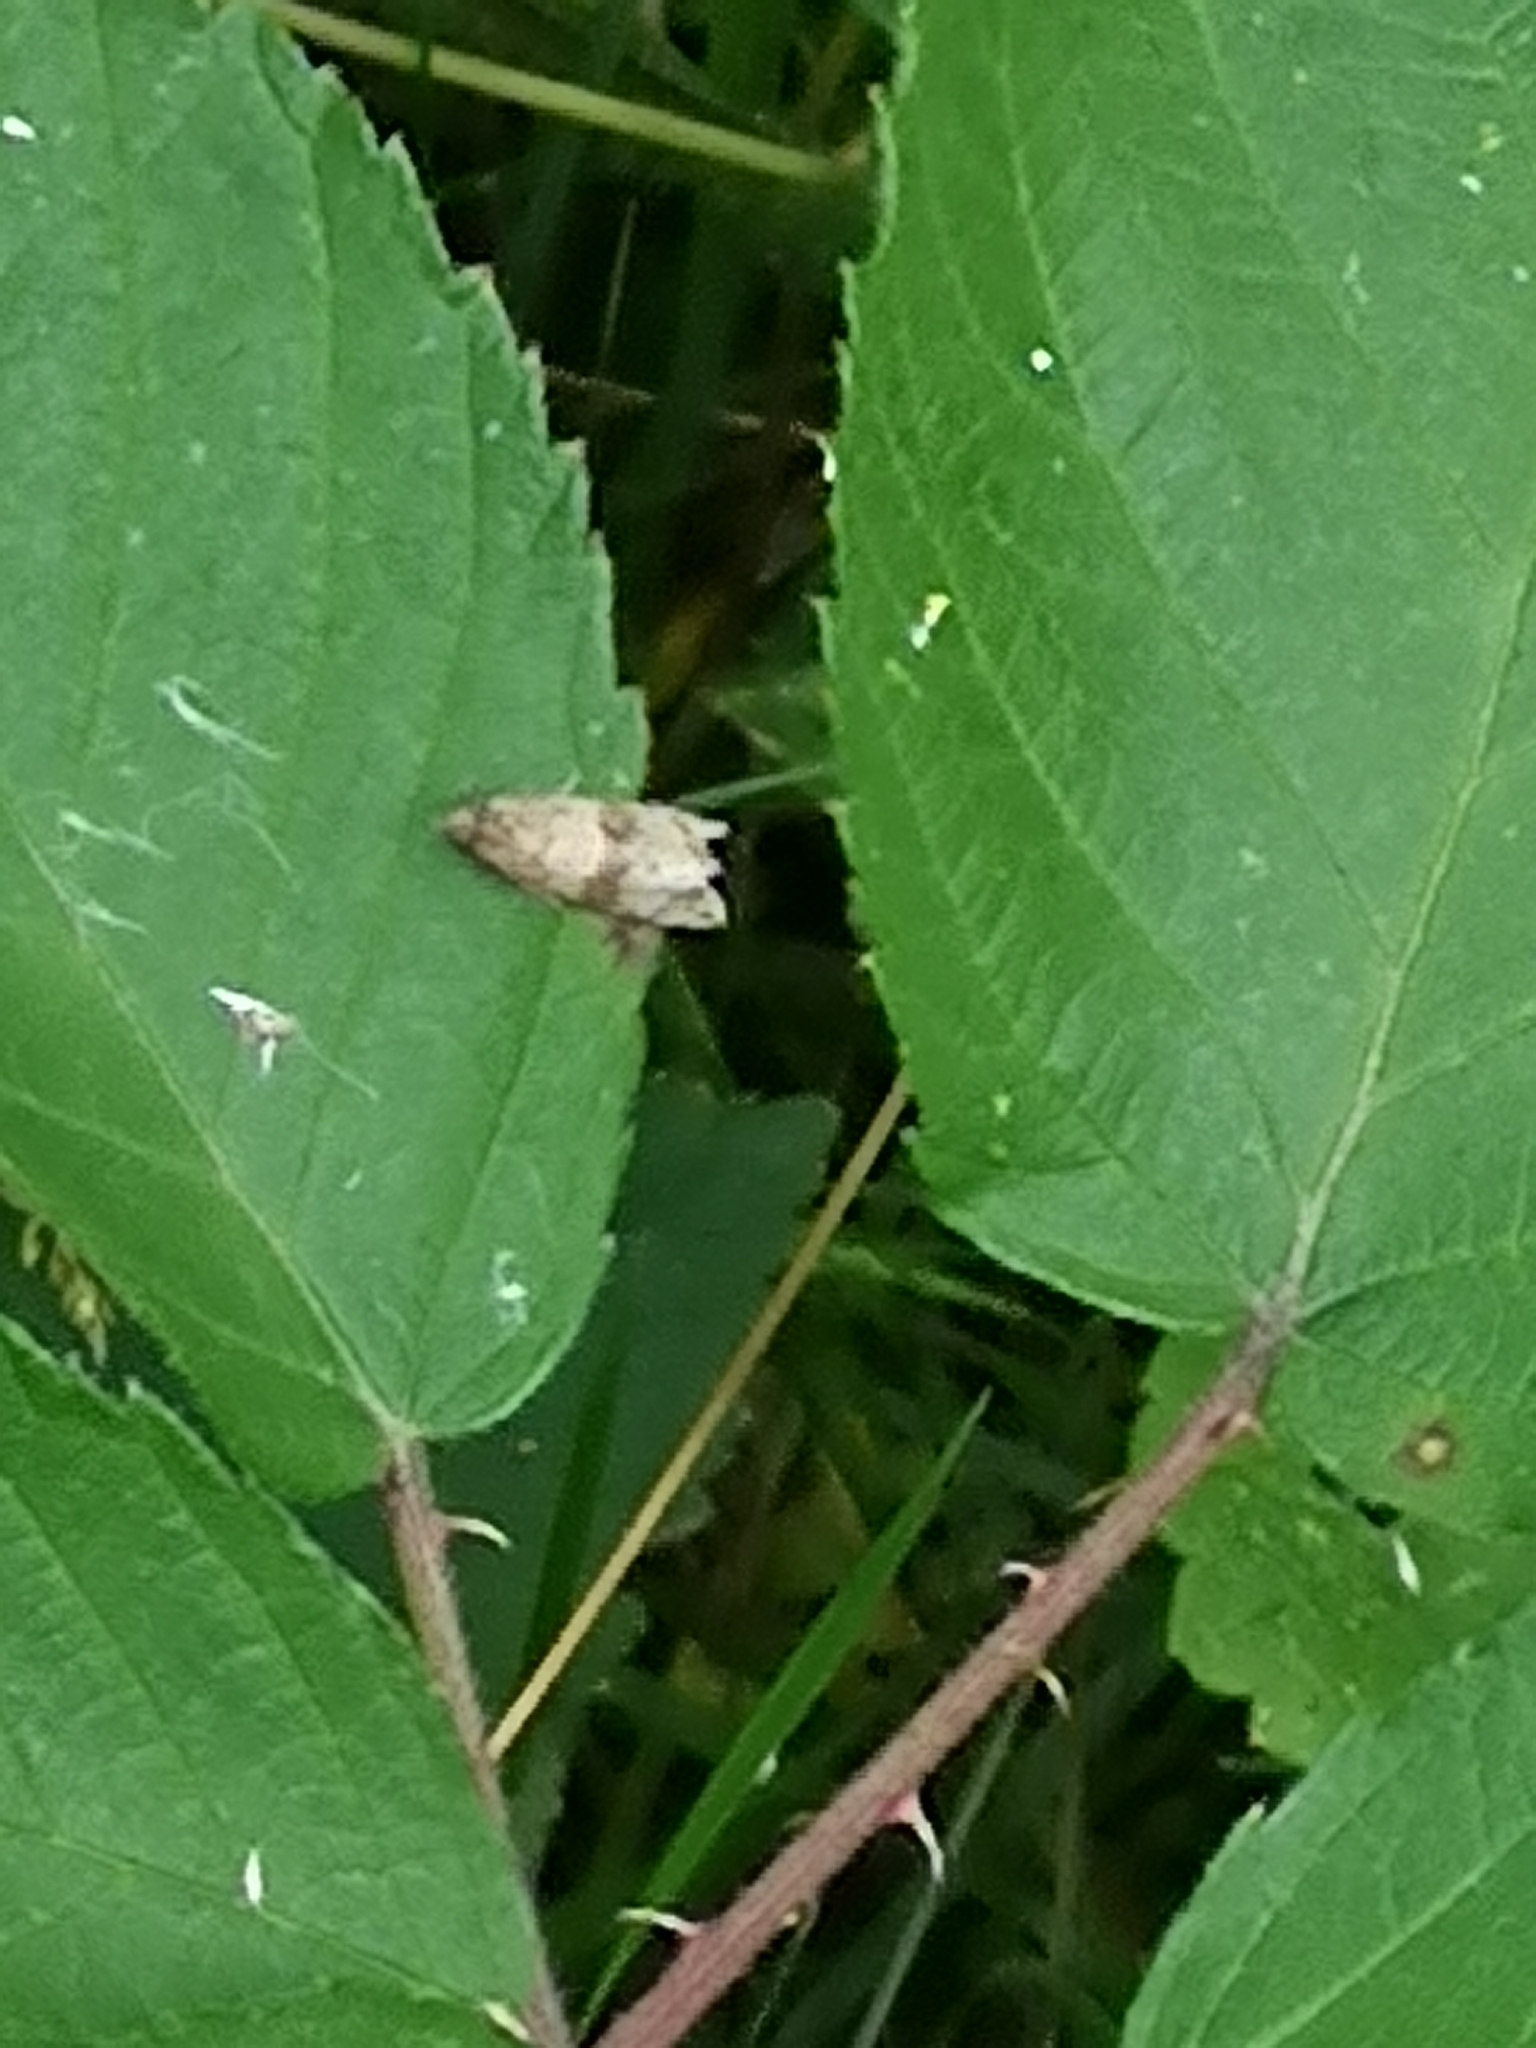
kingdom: Animalia
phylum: Arthropoda
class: Insecta
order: Lepidoptera
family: Tortricidae
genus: Celypha
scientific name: Celypha striana
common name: Barred marble
